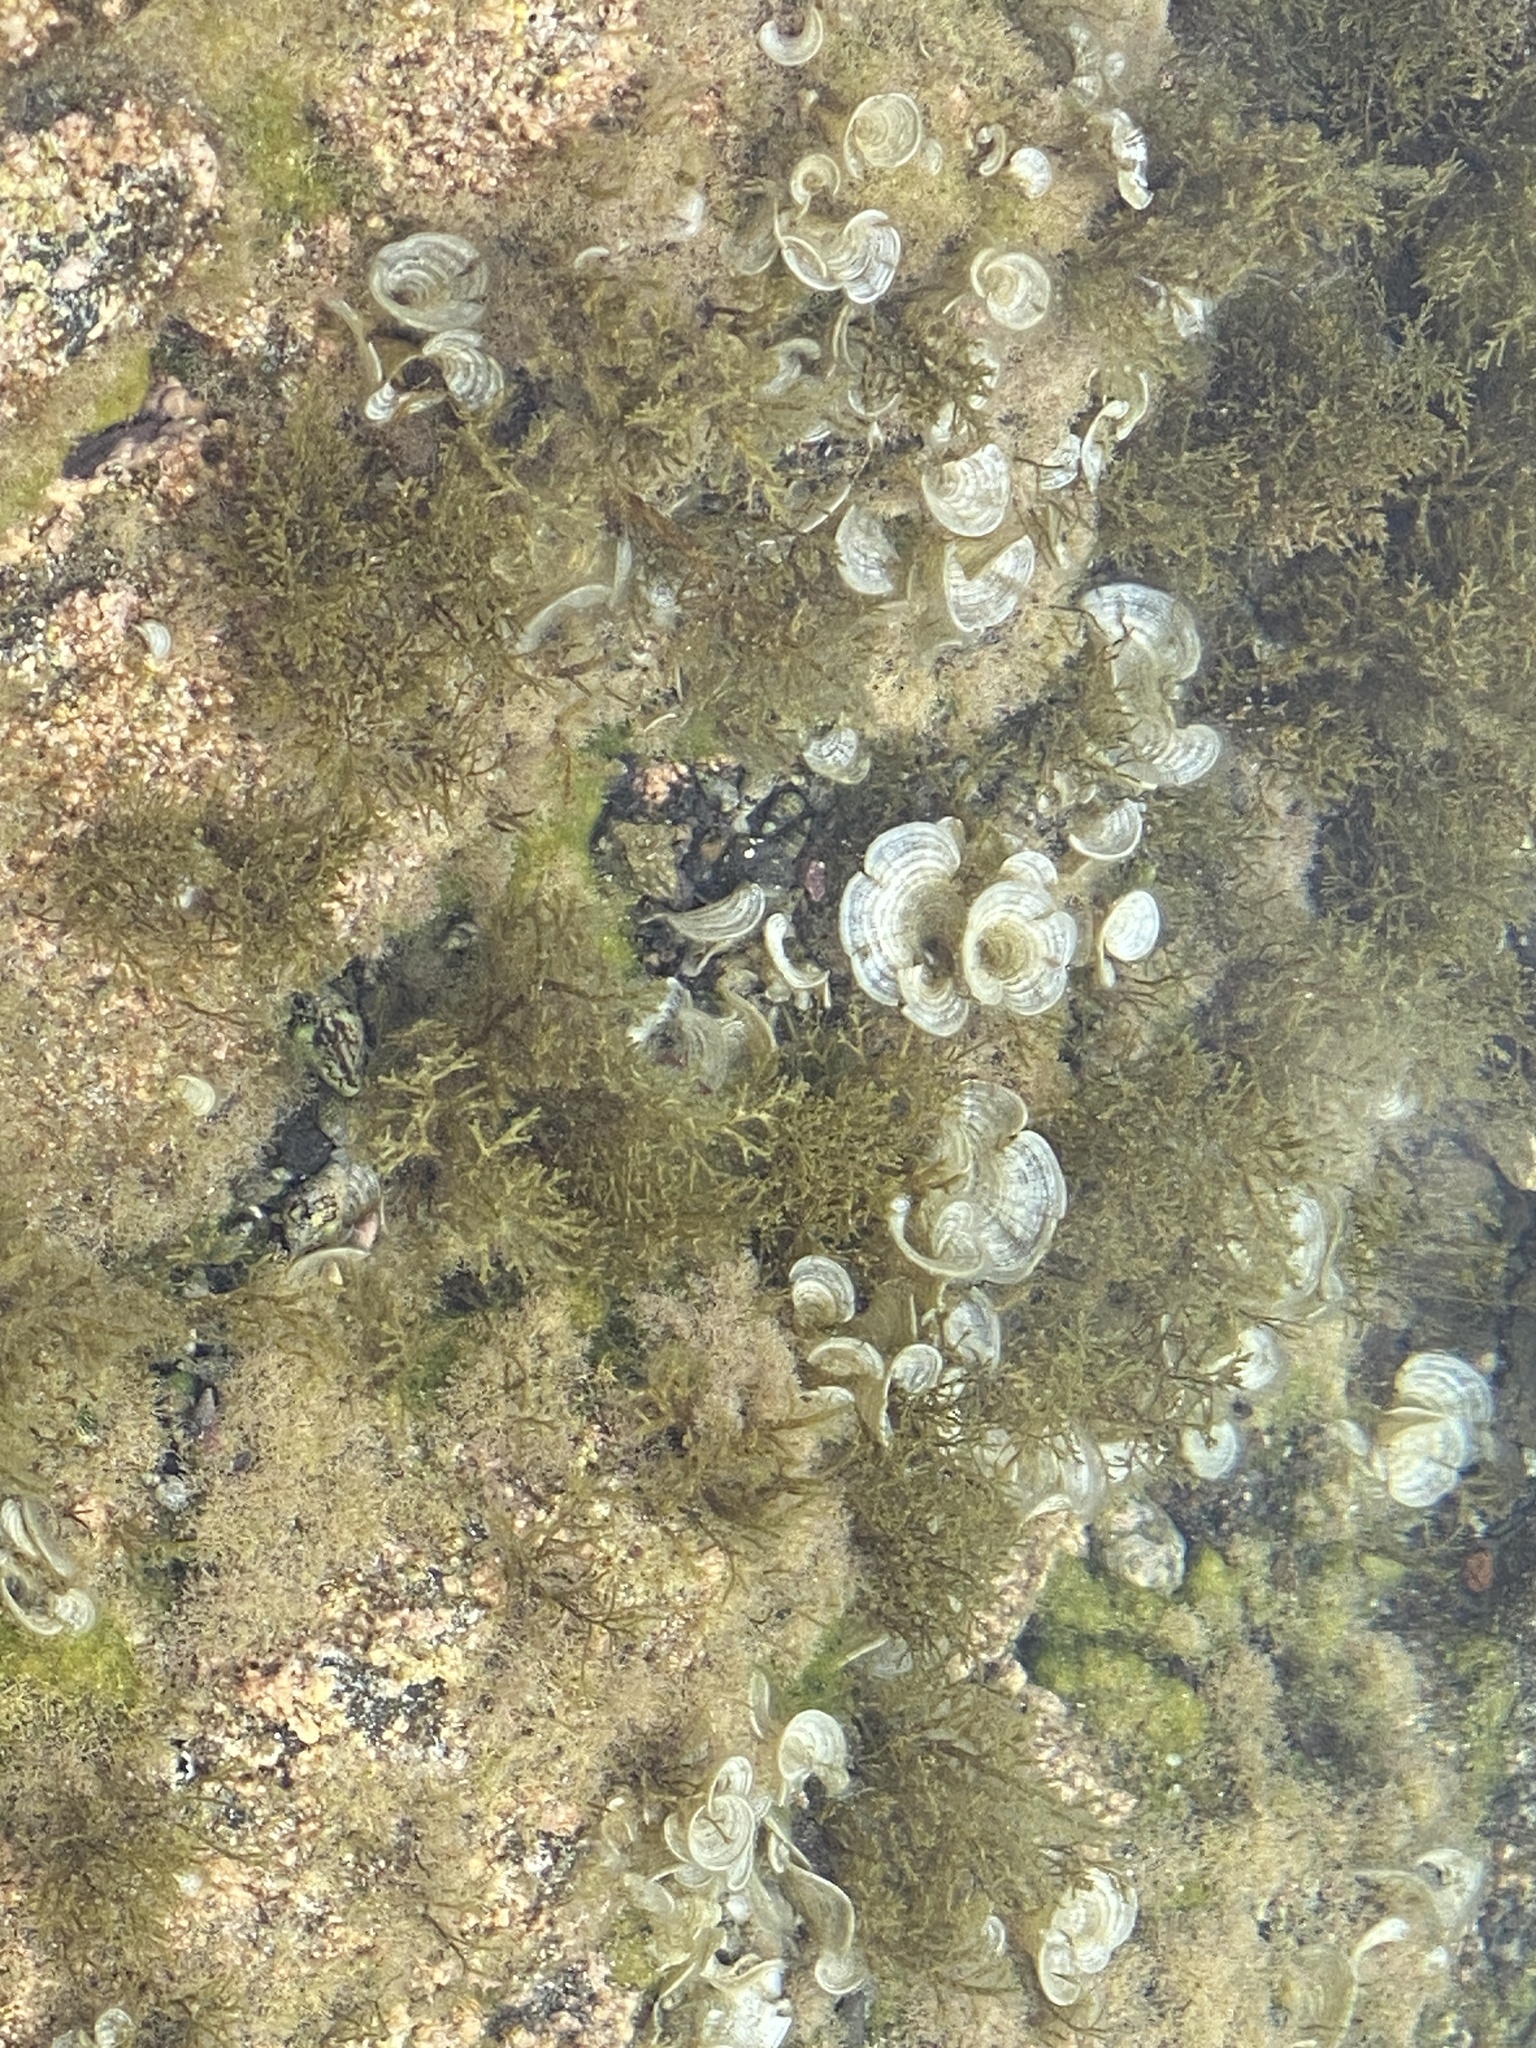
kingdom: Chromista
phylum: Ochrophyta
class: Phaeophyceae
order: Dictyotales
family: Dictyotaceae
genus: Padina
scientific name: Padina pavonica
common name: Turkey feather alga
